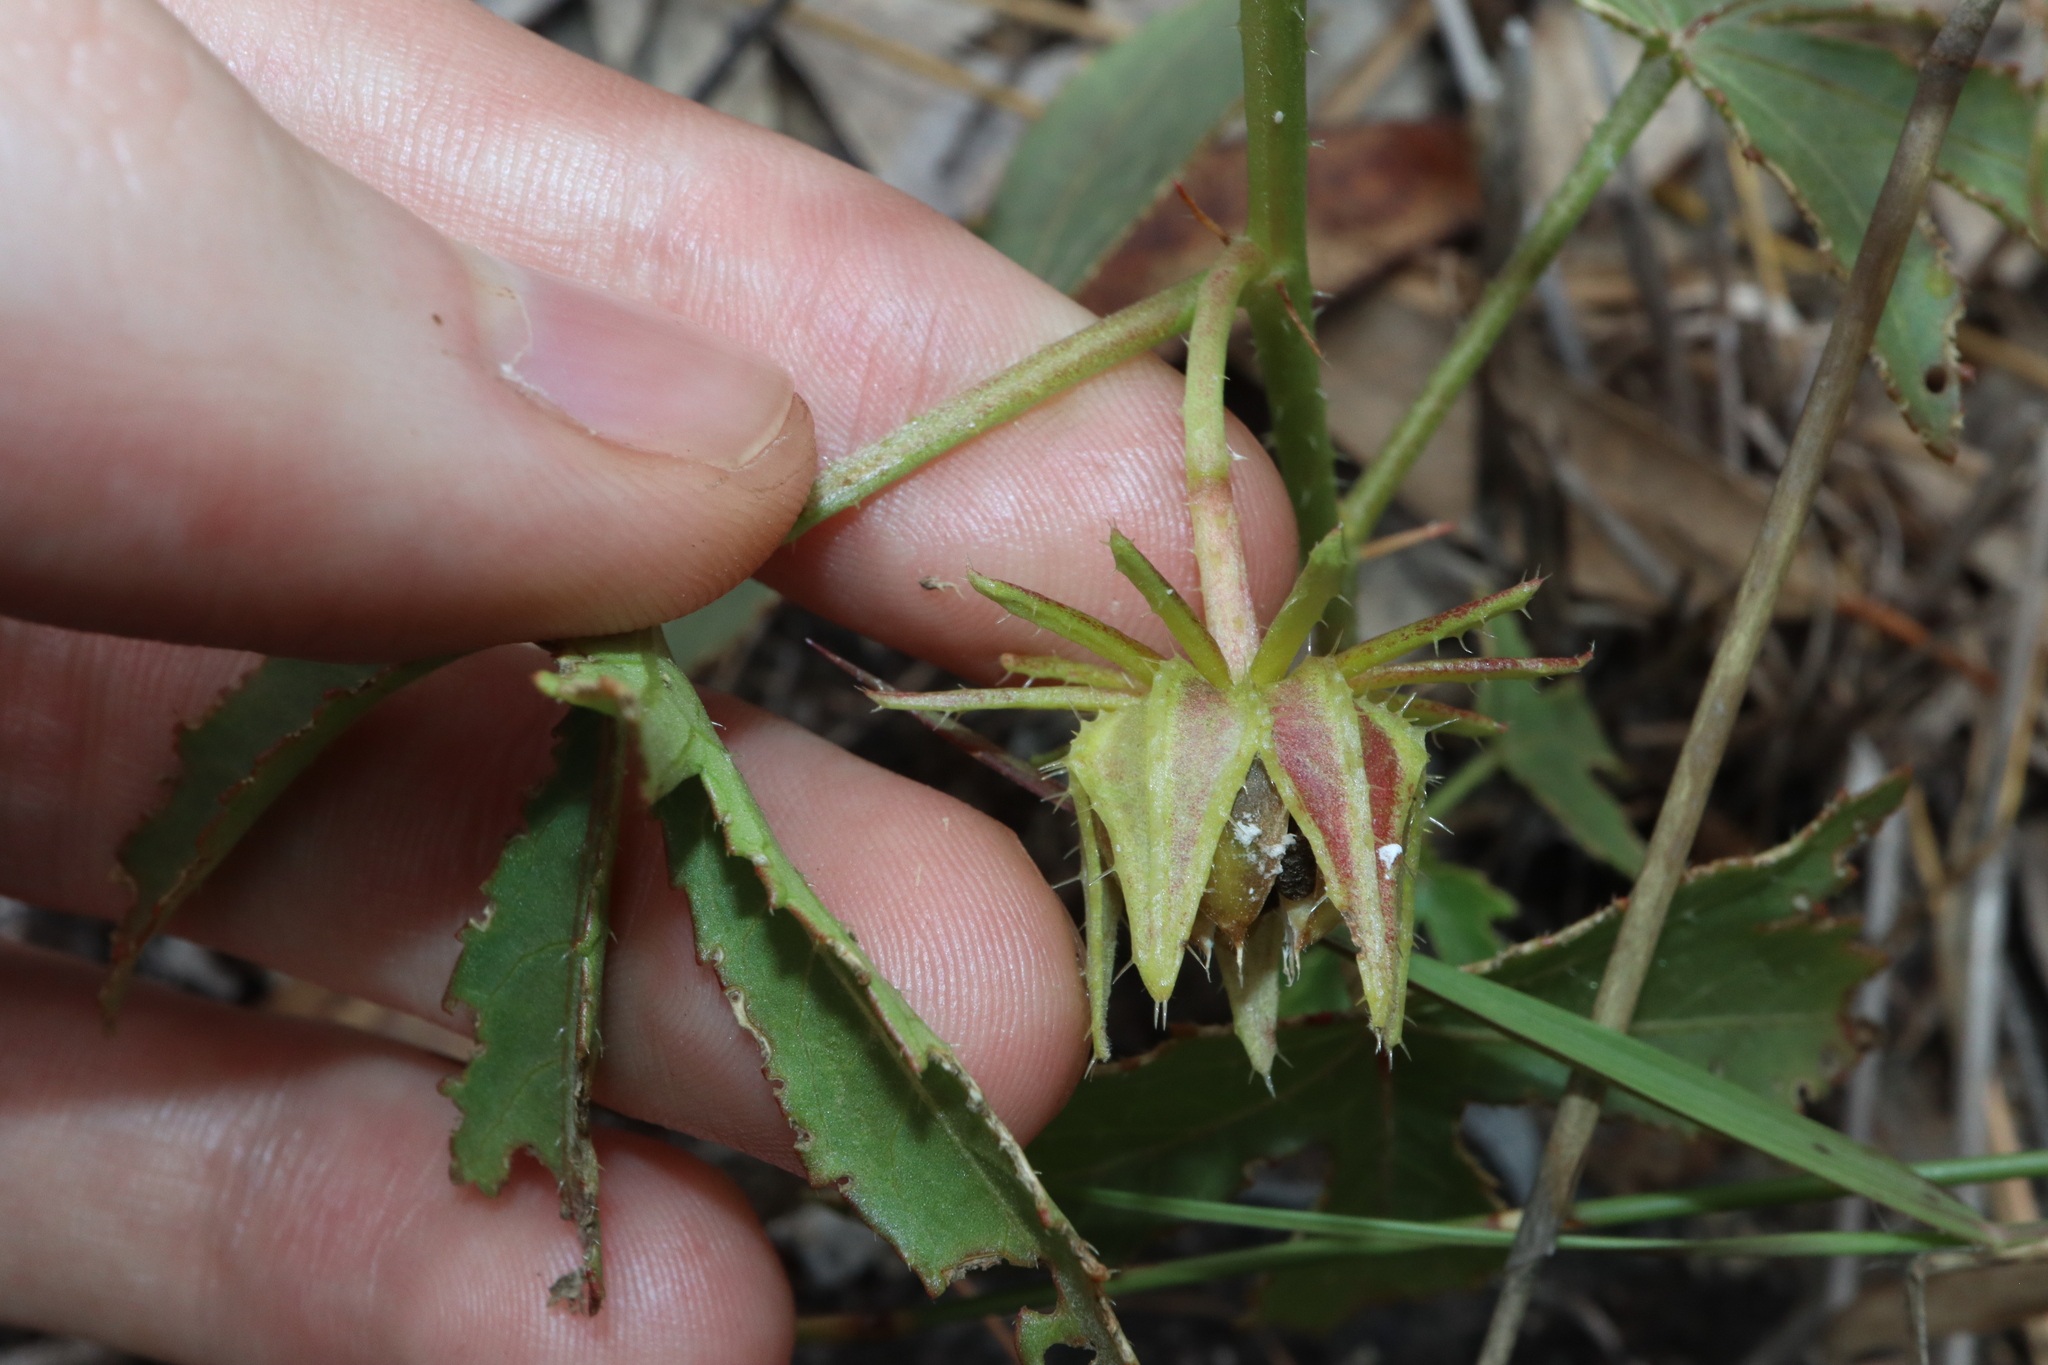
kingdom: Plantae
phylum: Tracheophyta
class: Magnoliopsida
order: Malvales
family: Malvaceae
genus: Hibiscus
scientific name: Hibiscus meraukensis
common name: Bush hibiscus
